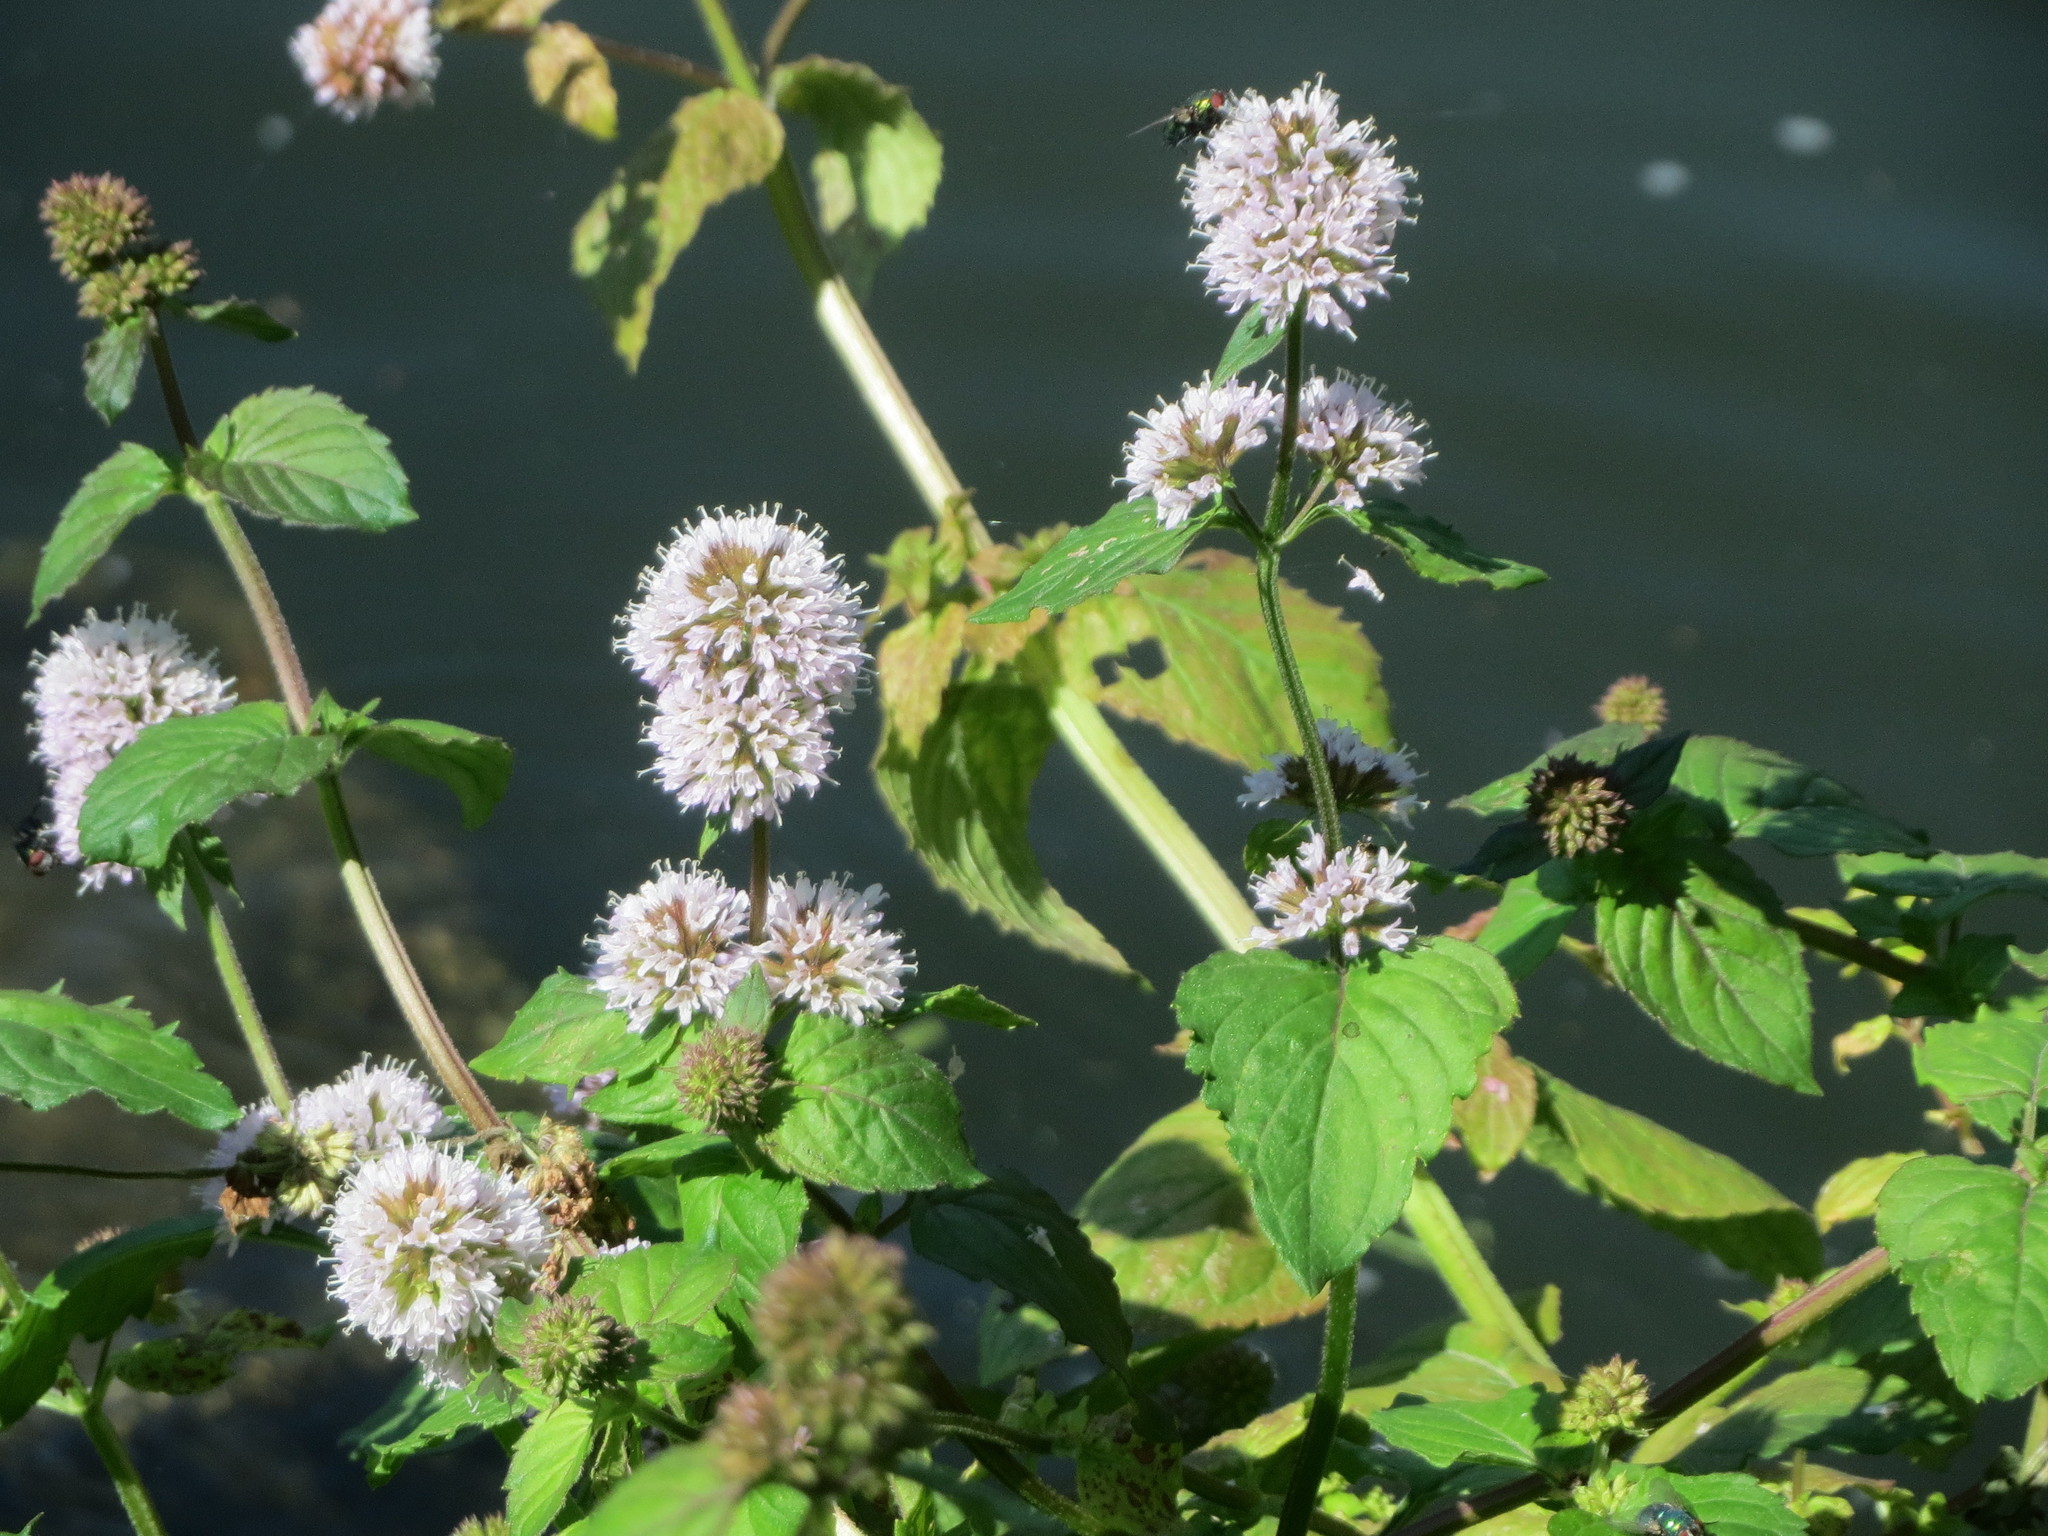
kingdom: Plantae
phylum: Tracheophyta
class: Magnoliopsida
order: Lamiales
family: Lamiaceae
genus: Mentha
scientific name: Mentha aquatica
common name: Water mint
